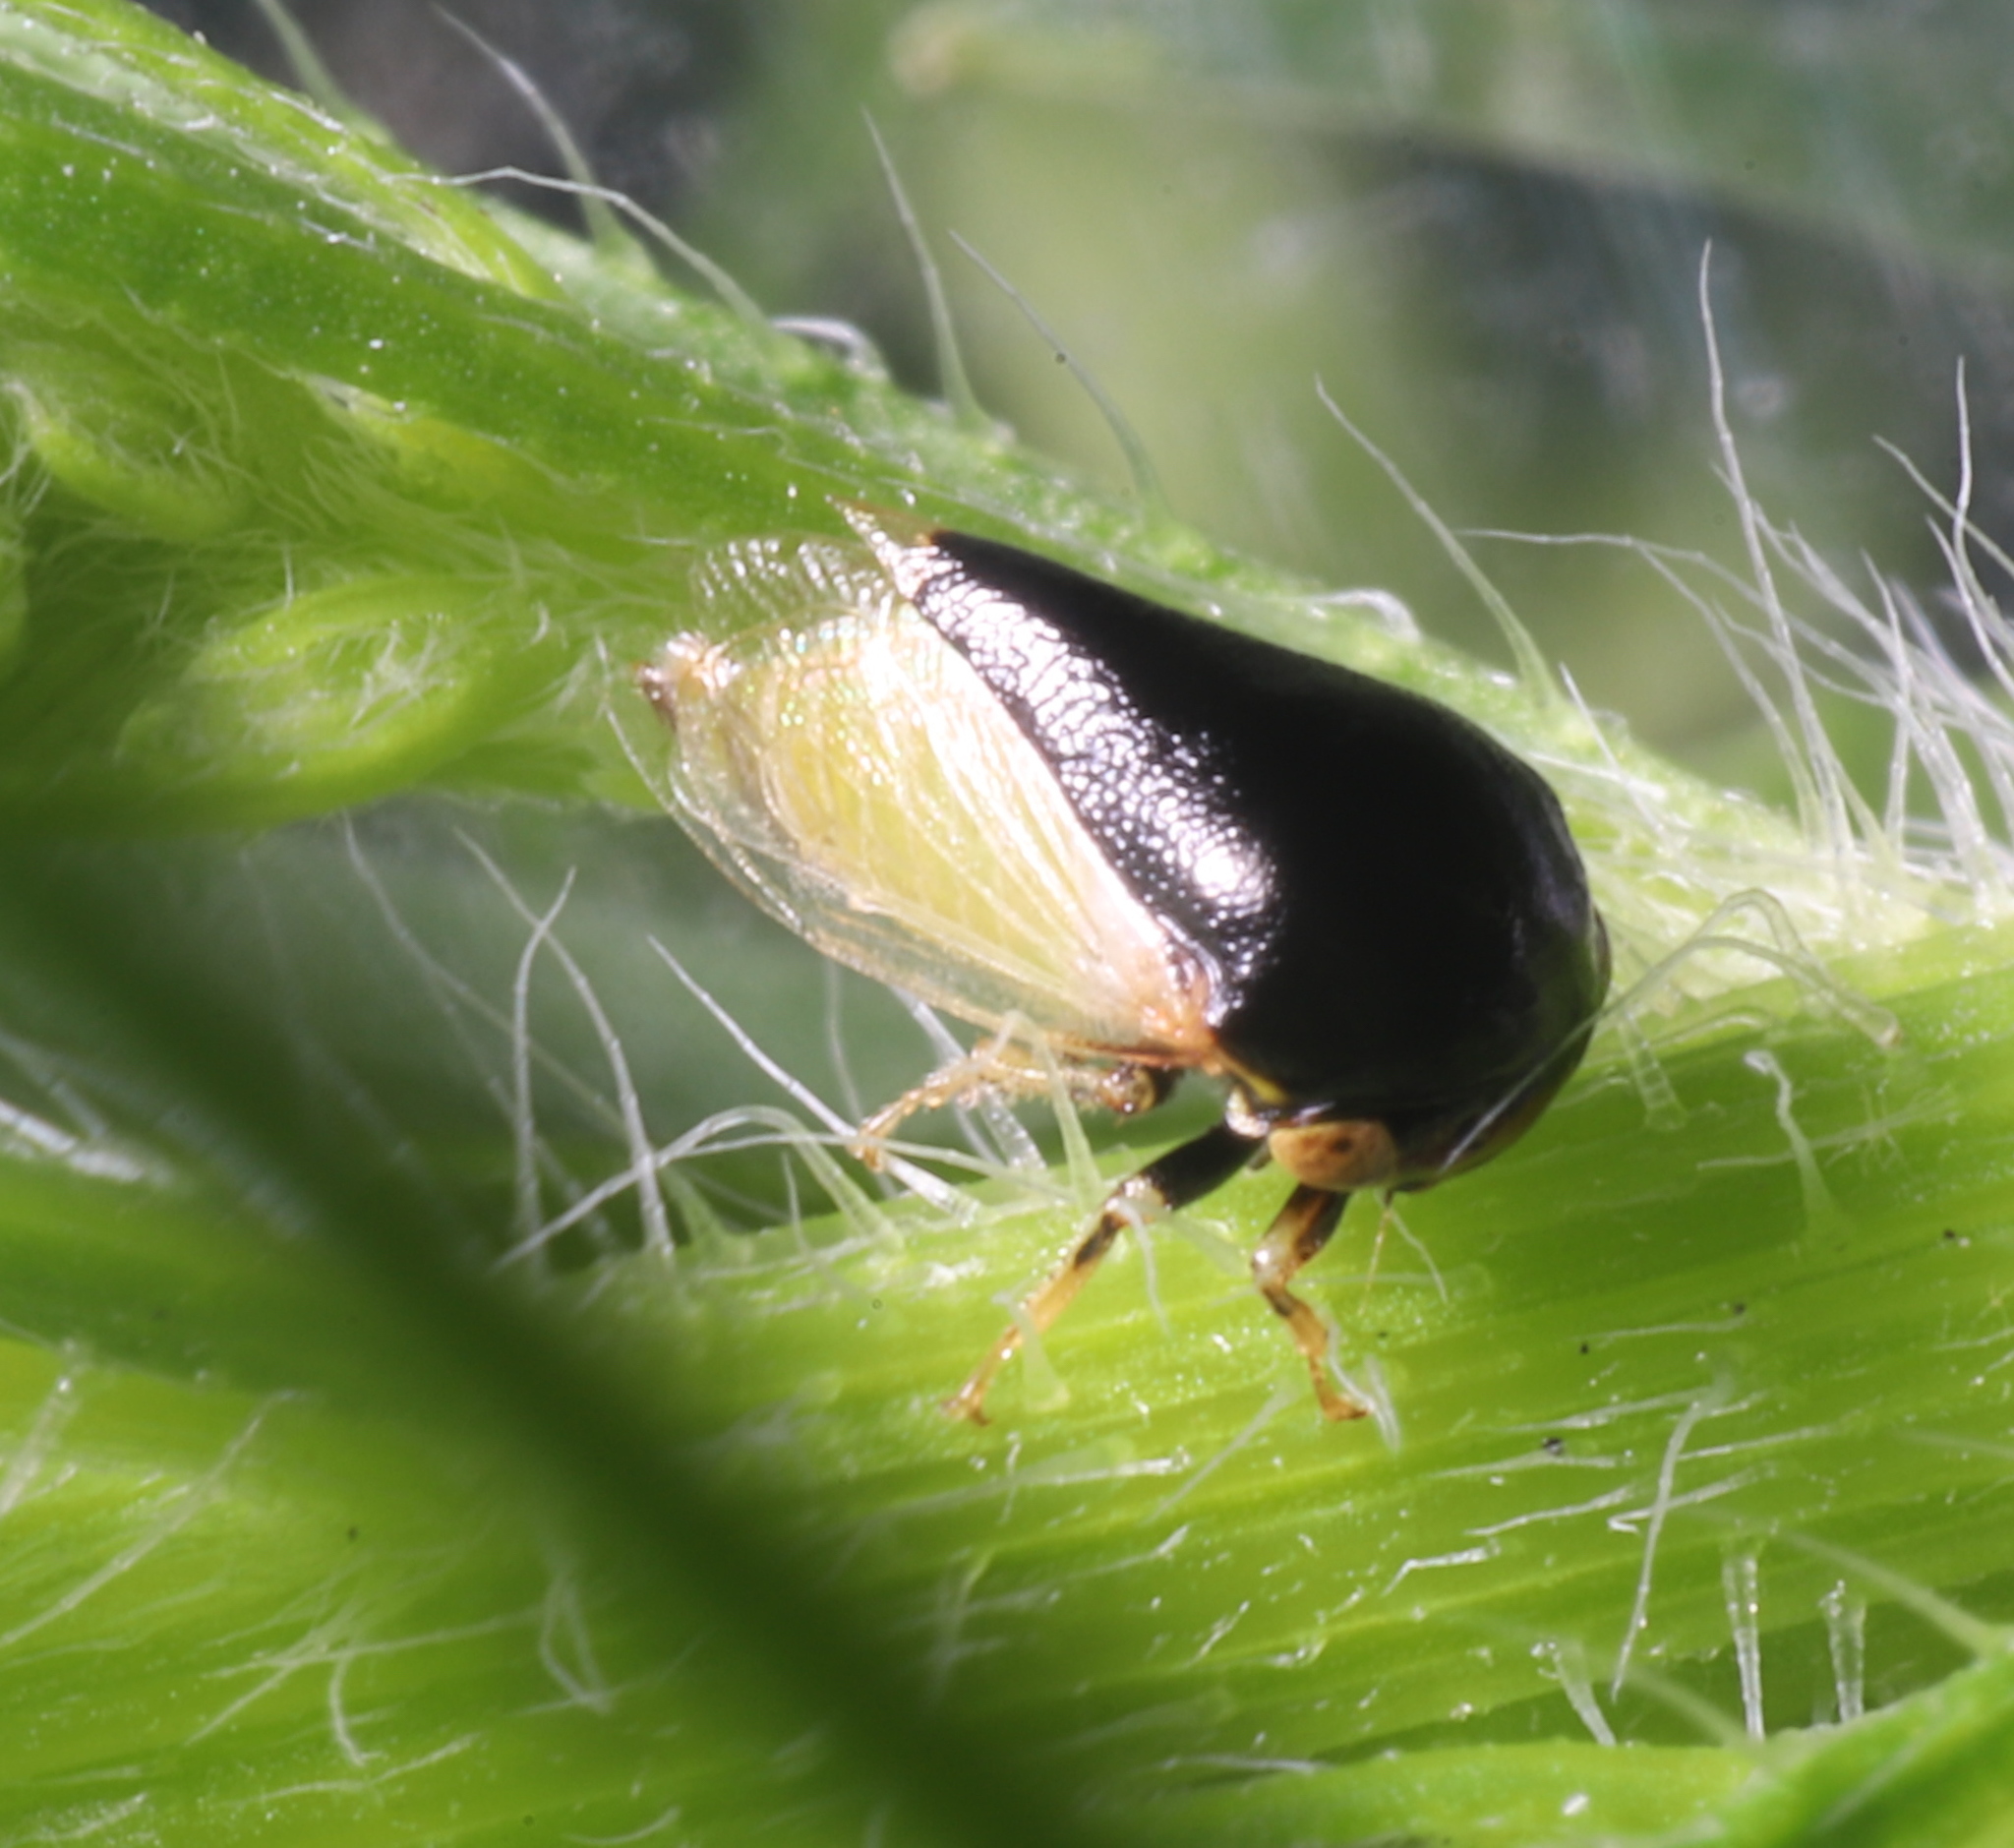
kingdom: Animalia
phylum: Arthropoda
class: Insecta
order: Hemiptera
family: Membracidae
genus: Micrutalis
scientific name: Micrutalis calva
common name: Honeylocust treehopper
